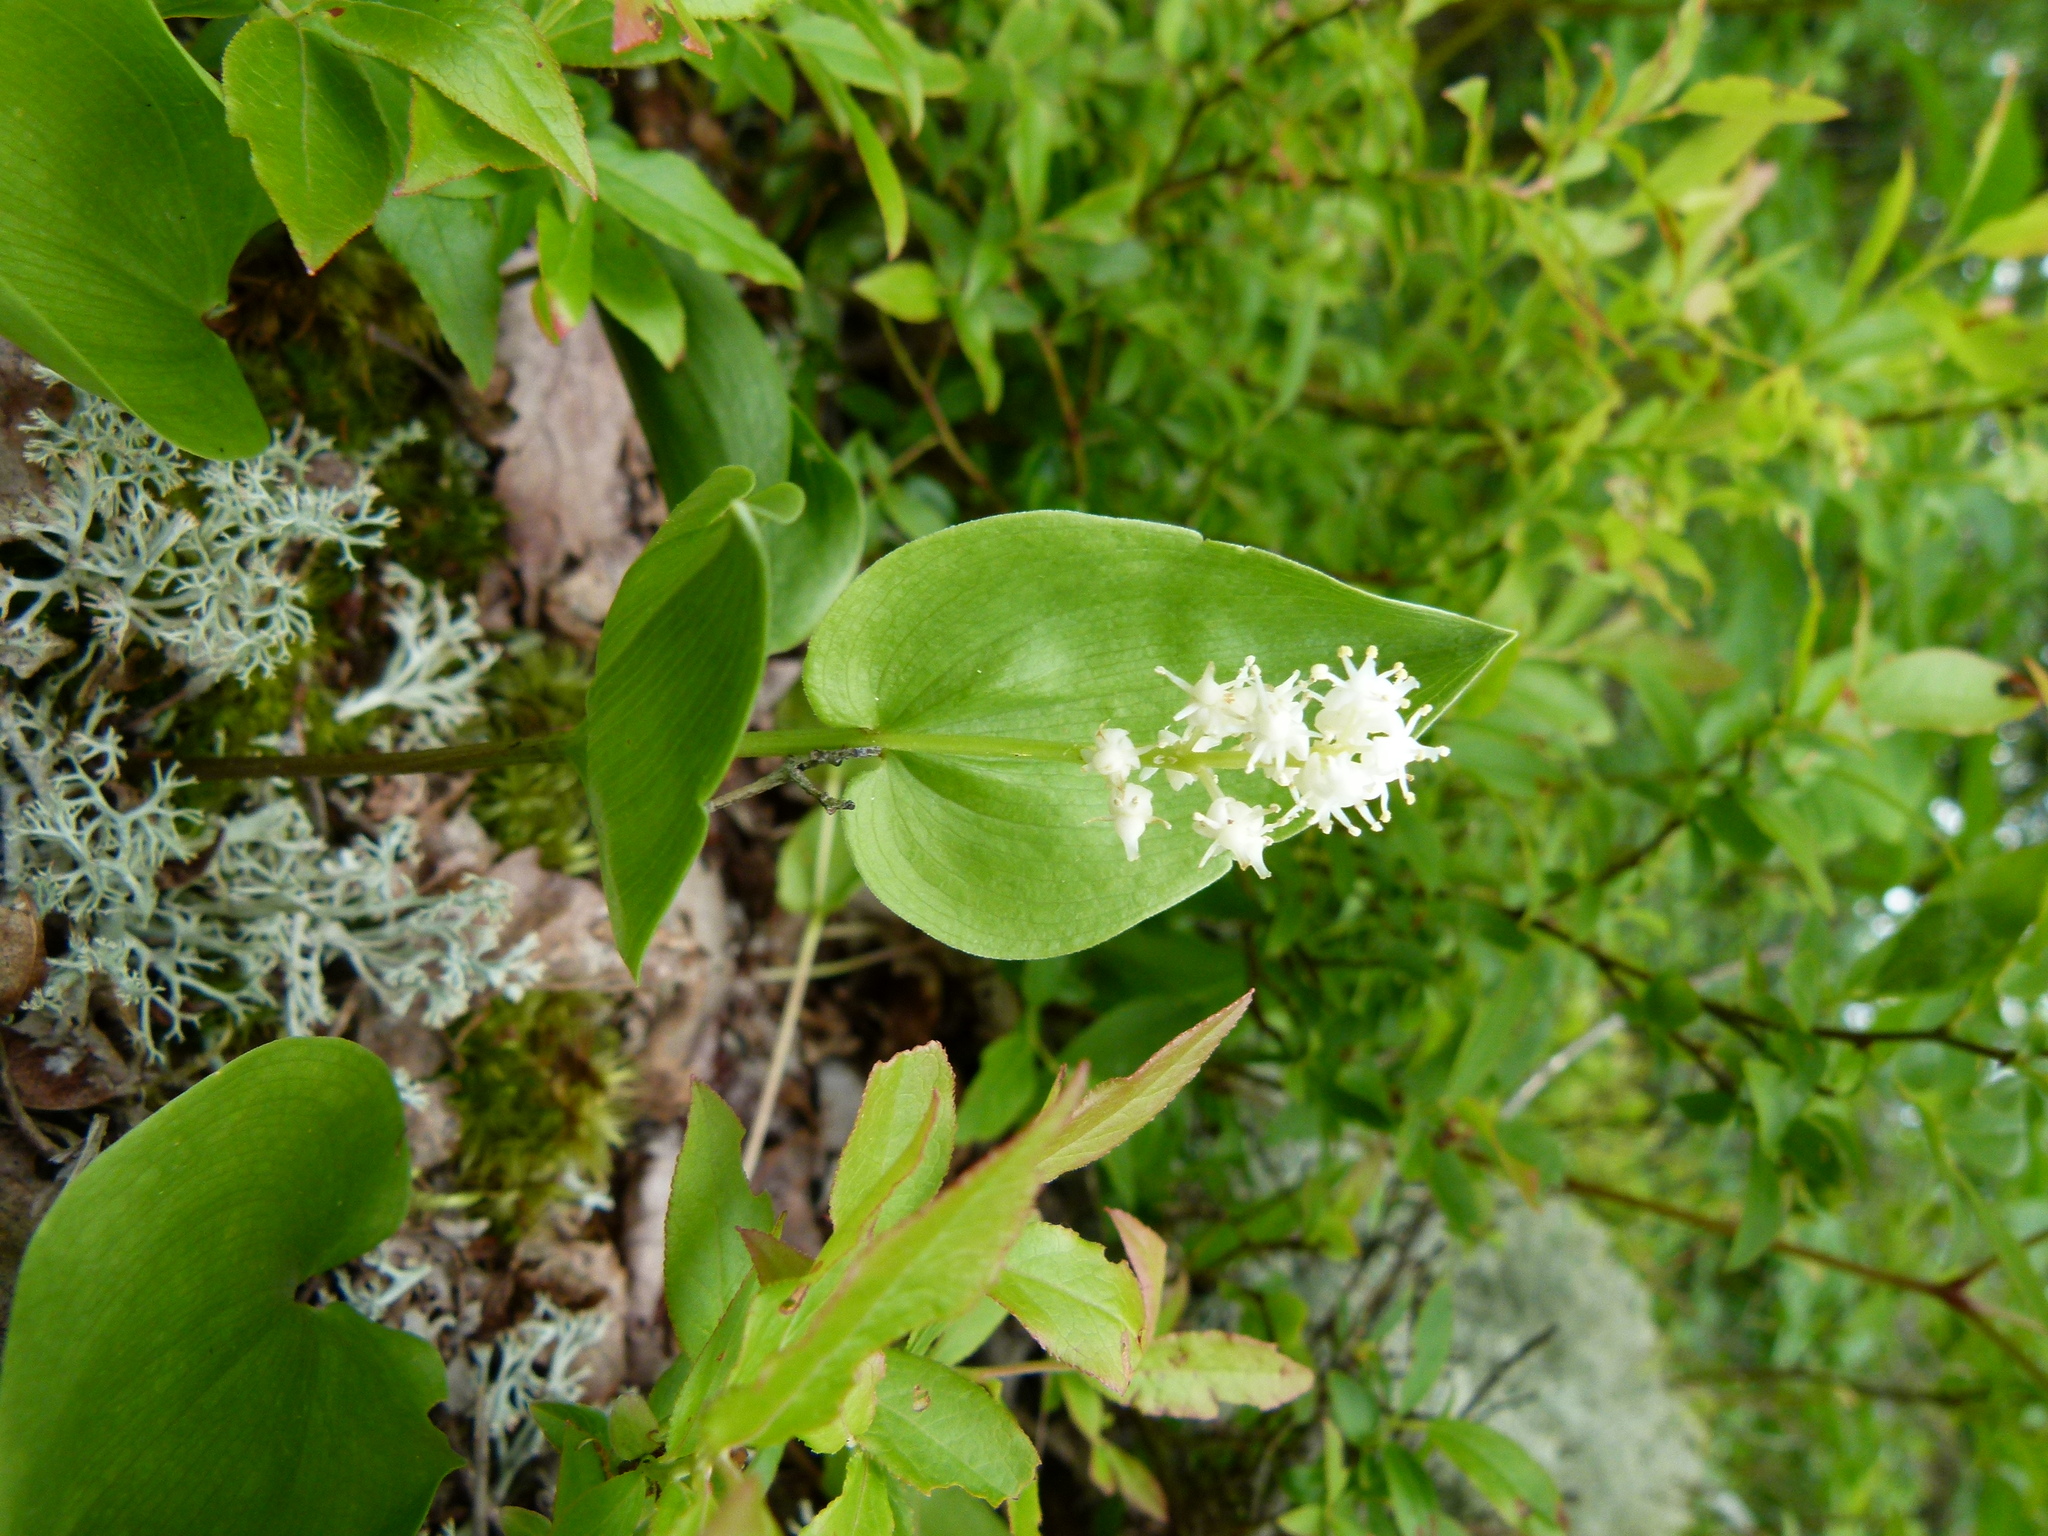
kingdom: Plantae
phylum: Tracheophyta
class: Liliopsida
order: Asparagales
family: Asparagaceae
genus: Maianthemum
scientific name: Maianthemum canadense
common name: False lily-of-the-valley
